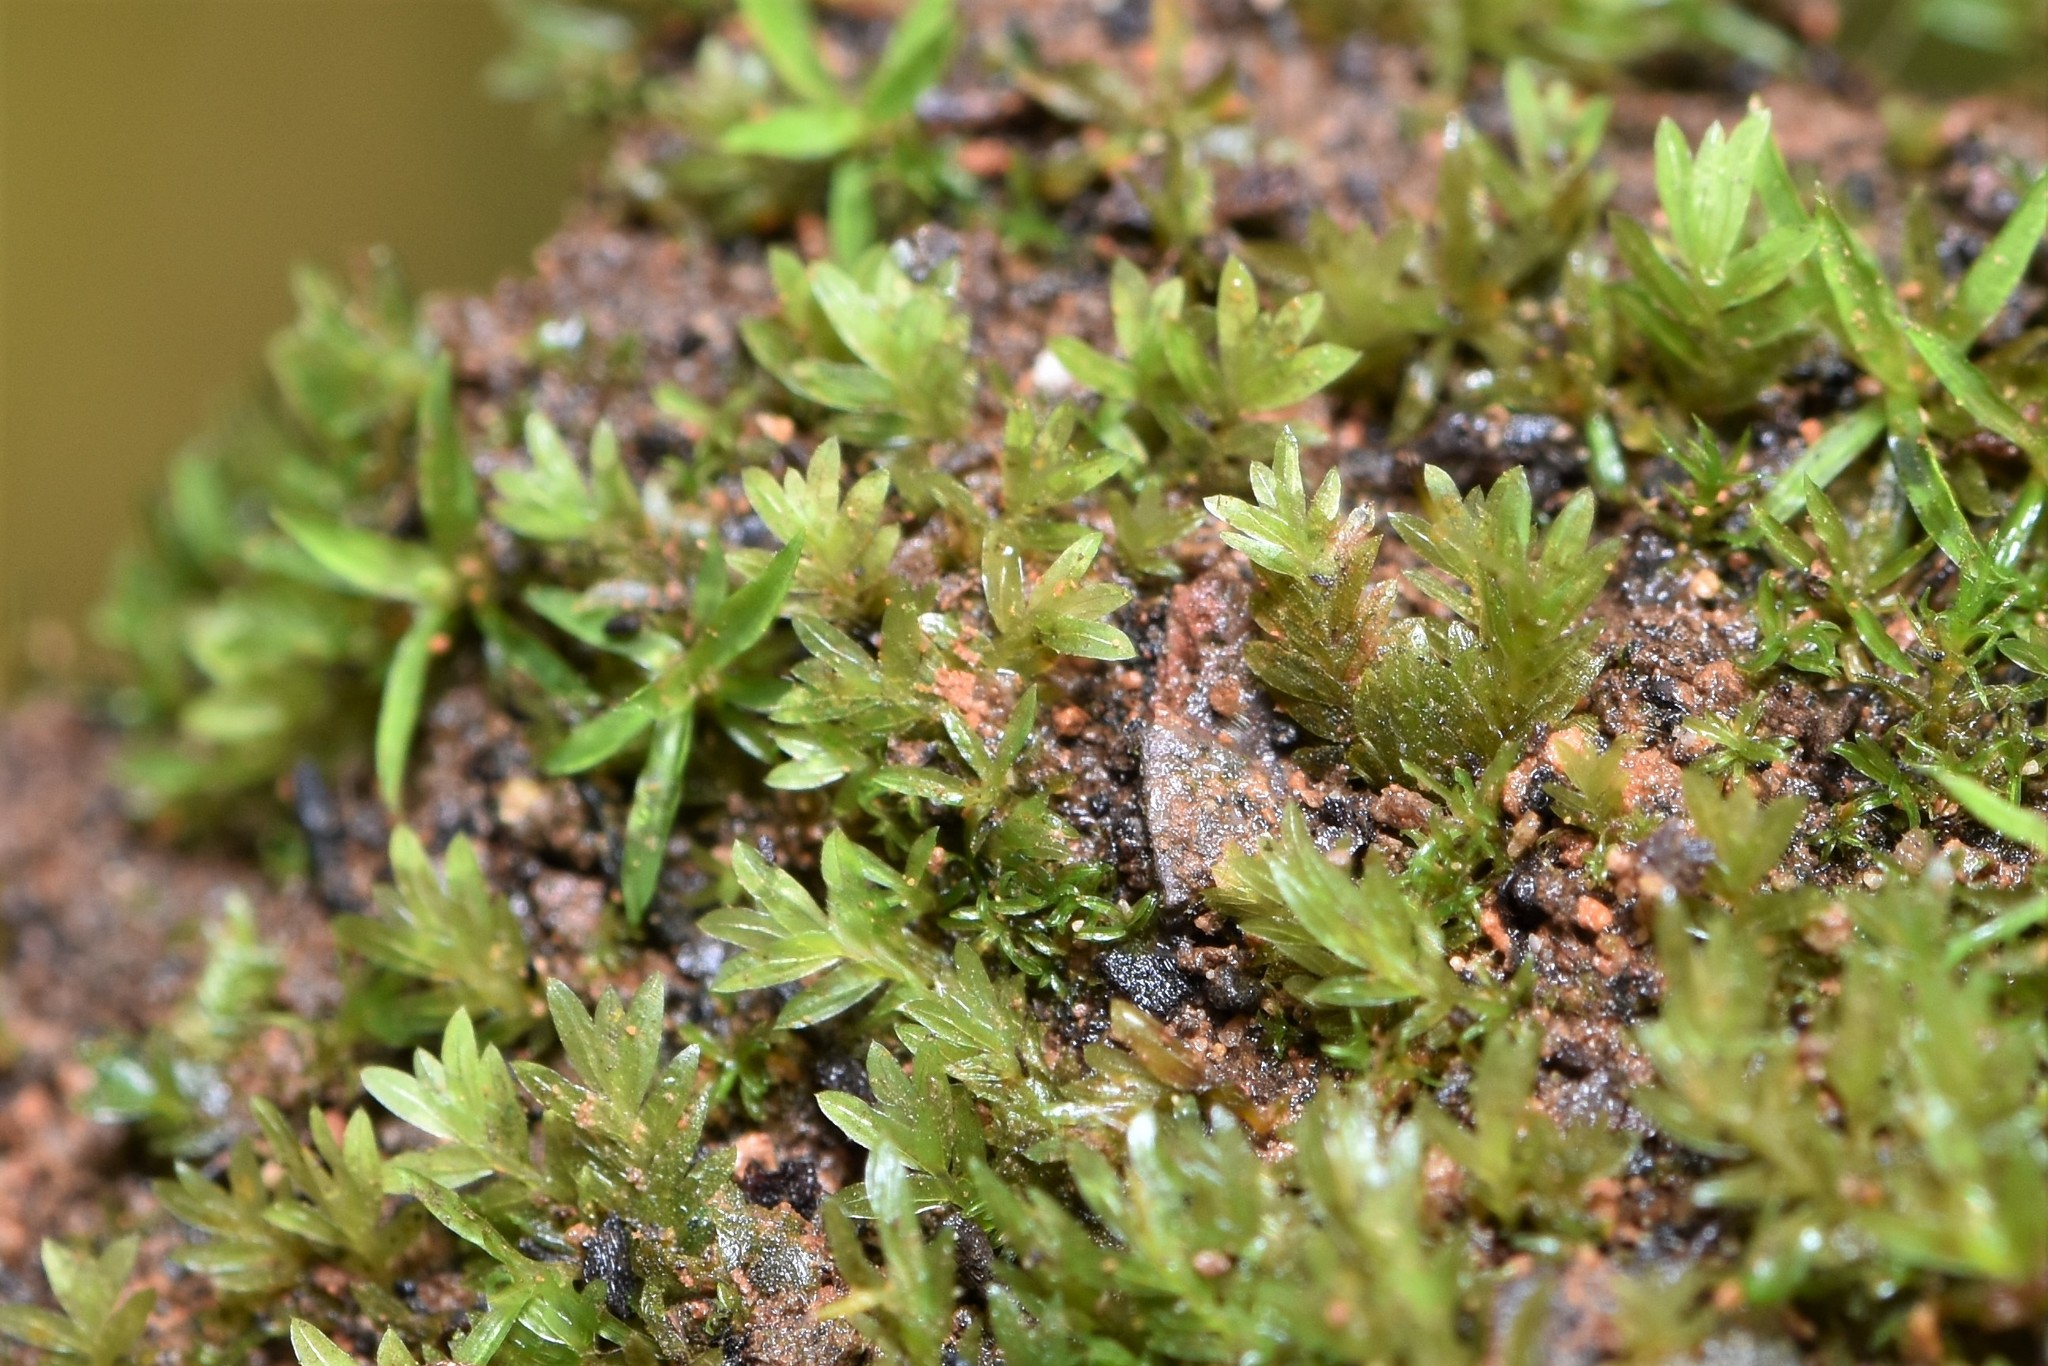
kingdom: Plantae
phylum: Bryophyta
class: Bryopsida
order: Dicranales
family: Fissidentaceae
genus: Fissidens
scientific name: Fissidens bryoides
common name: Lesser pocket moss
